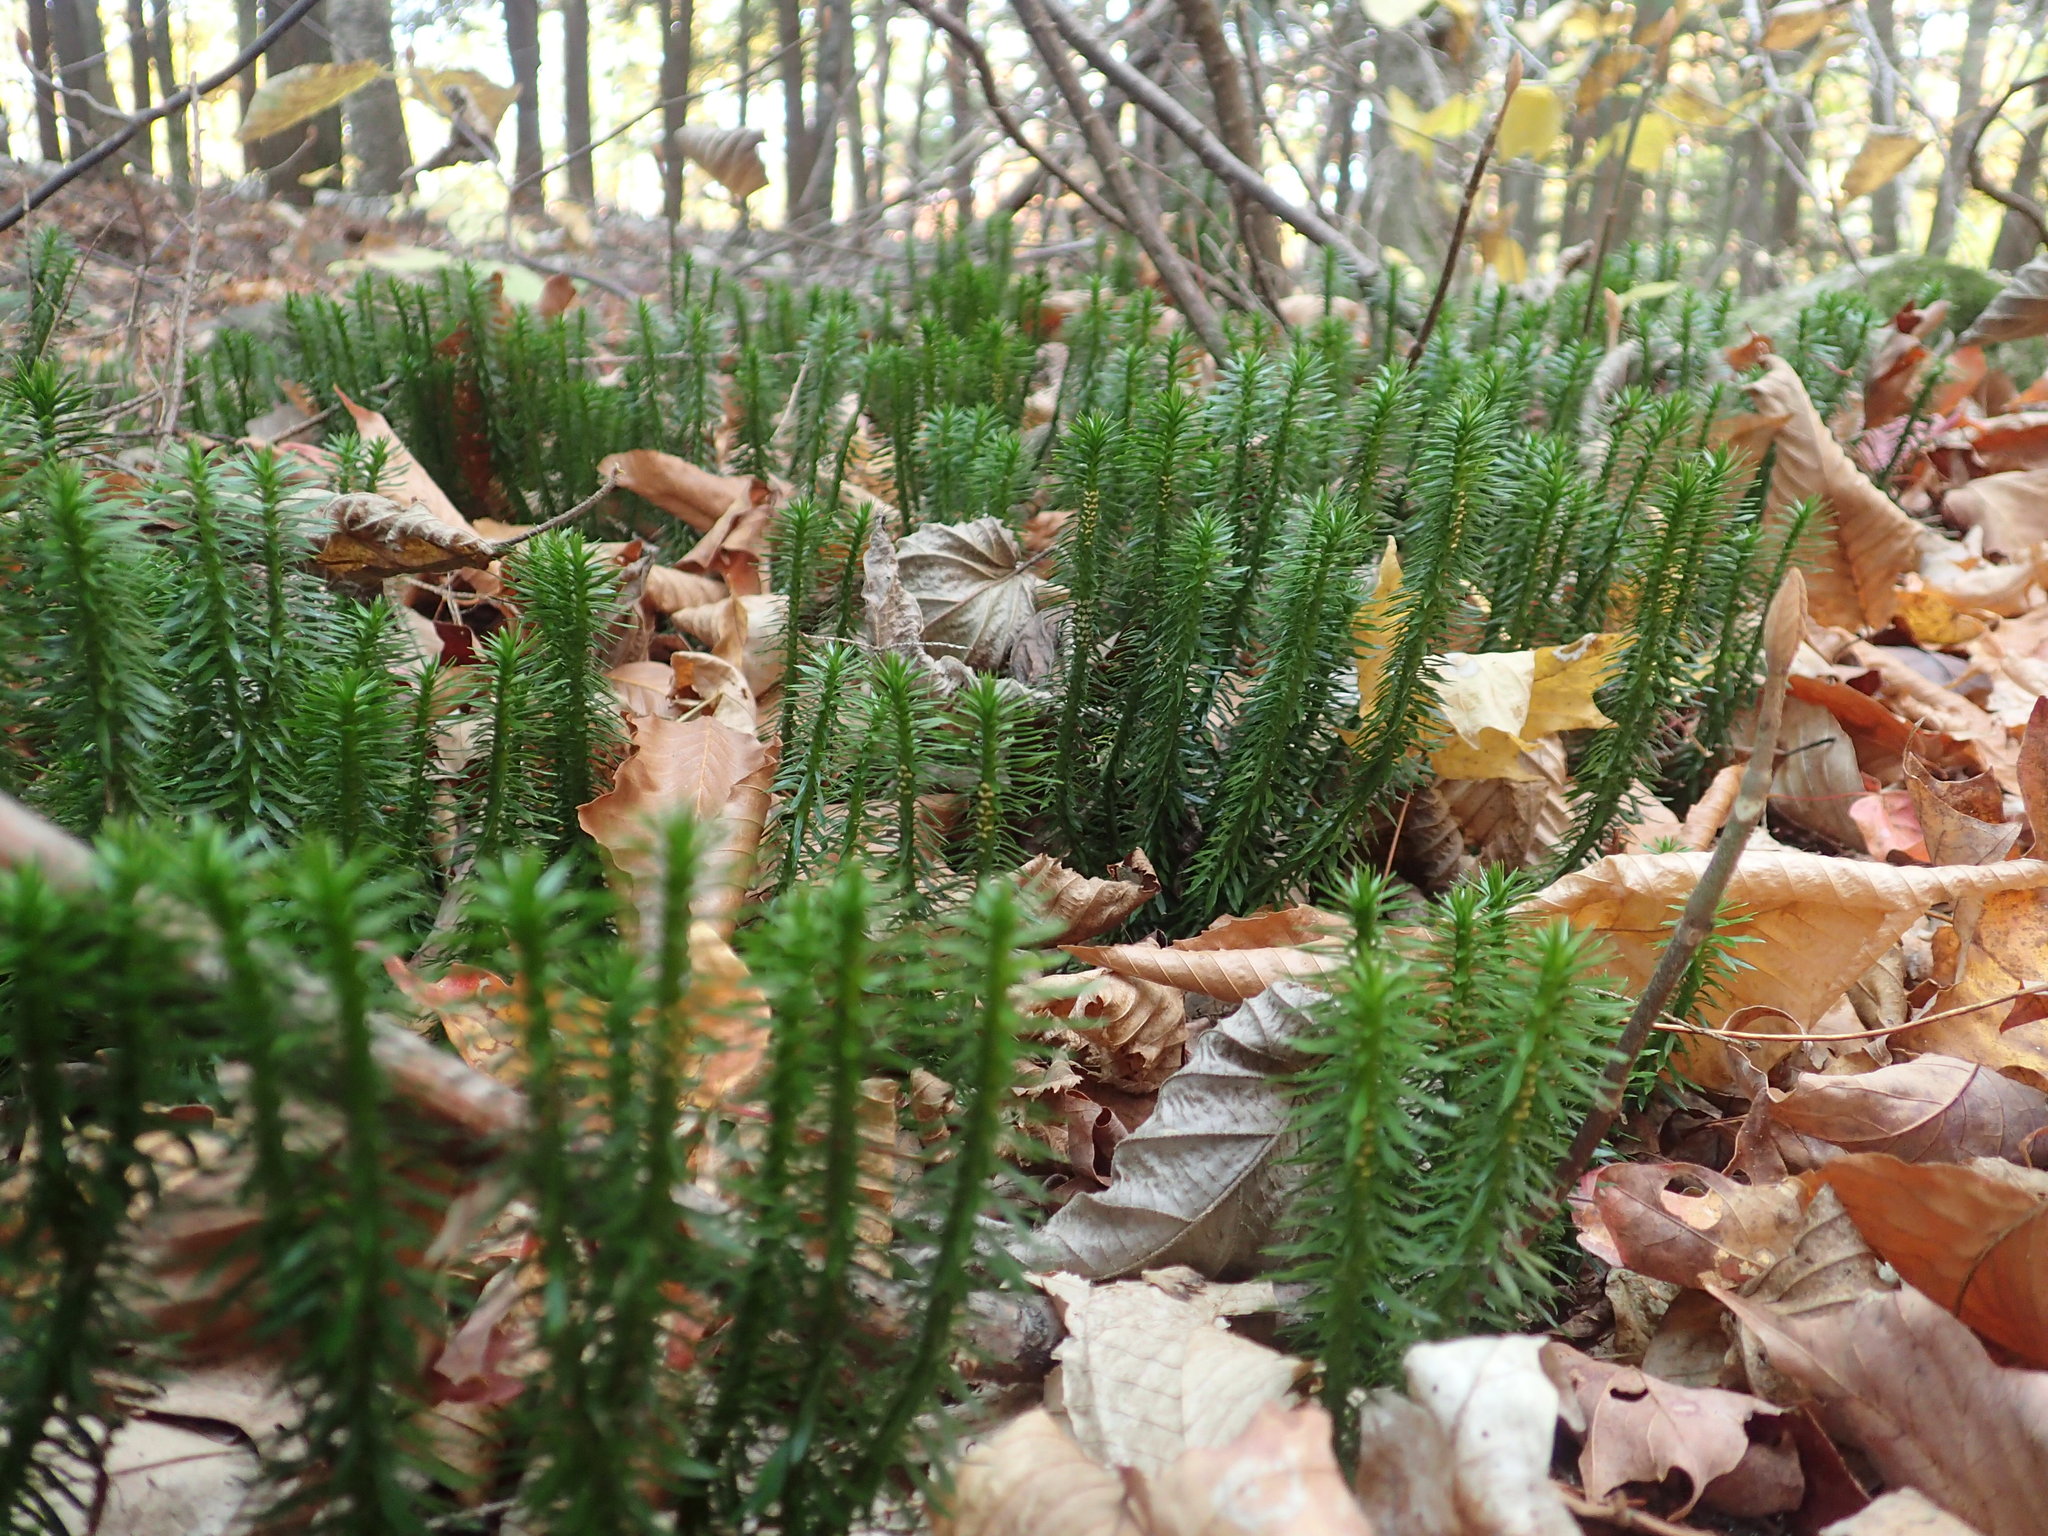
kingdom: Plantae
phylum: Tracheophyta
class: Lycopodiopsida
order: Lycopodiales
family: Lycopodiaceae
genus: Huperzia
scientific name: Huperzia lucidula
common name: Shining clubmoss
